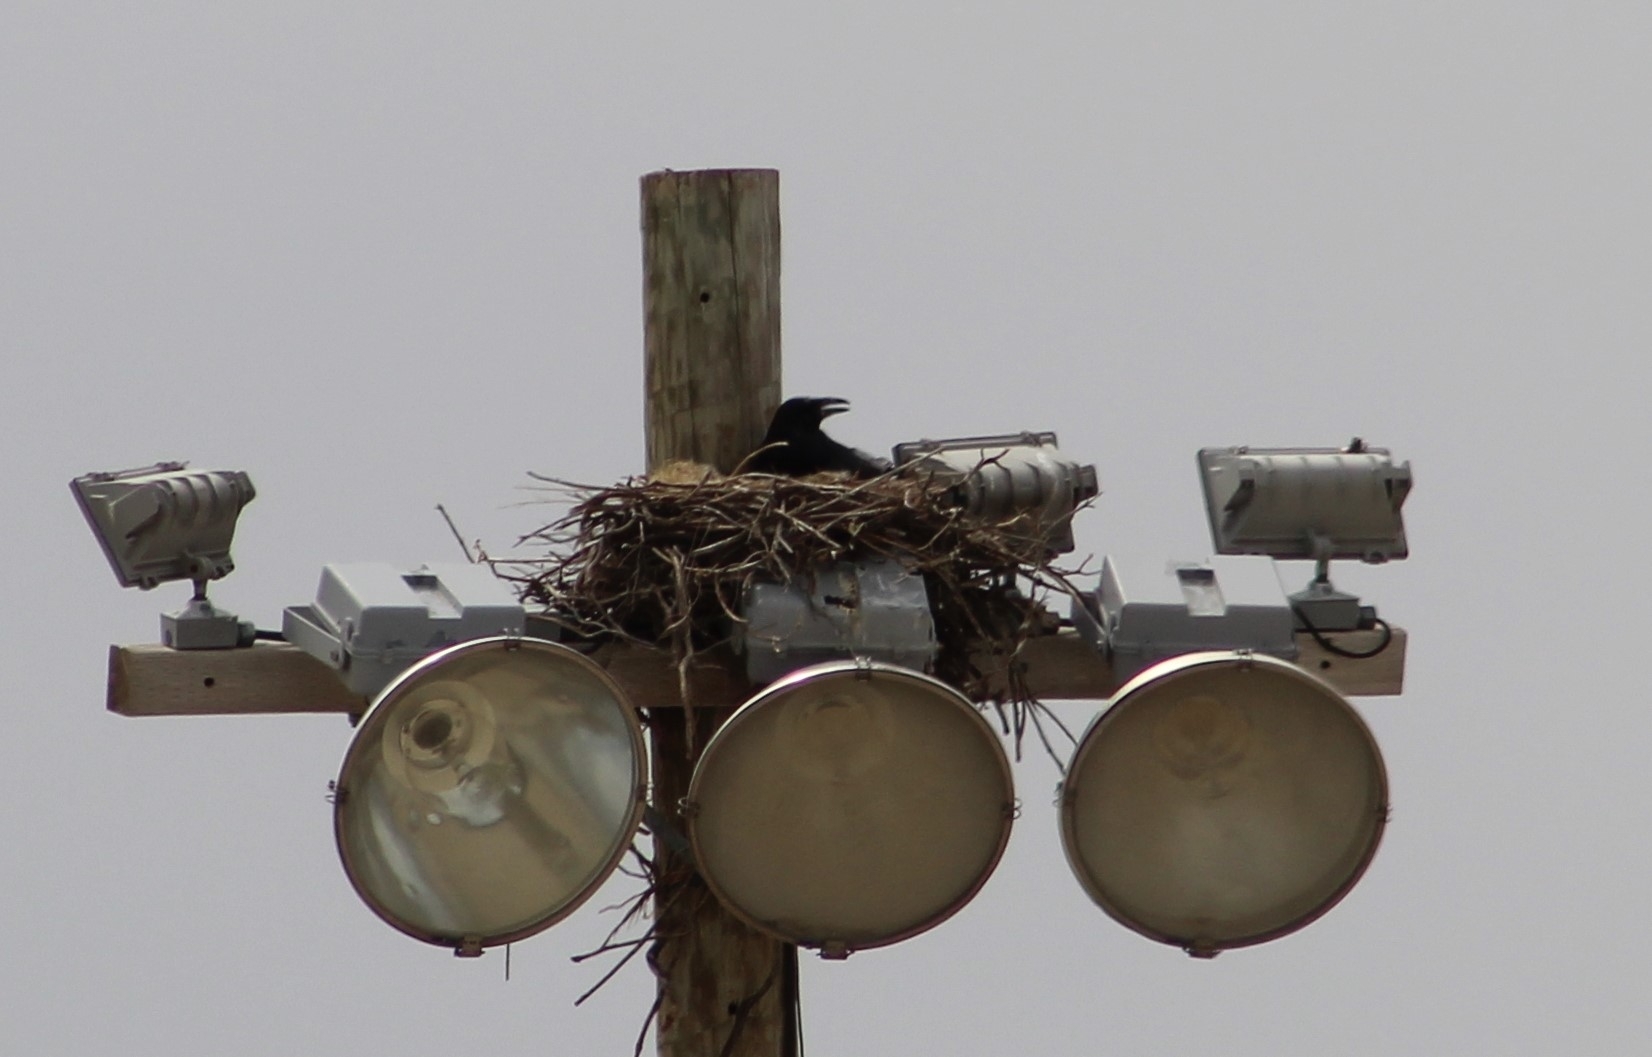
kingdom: Animalia
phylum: Chordata
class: Aves
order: Passeriformes
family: Corvidae
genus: Corvus
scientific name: Corvus corax
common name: Common raven
